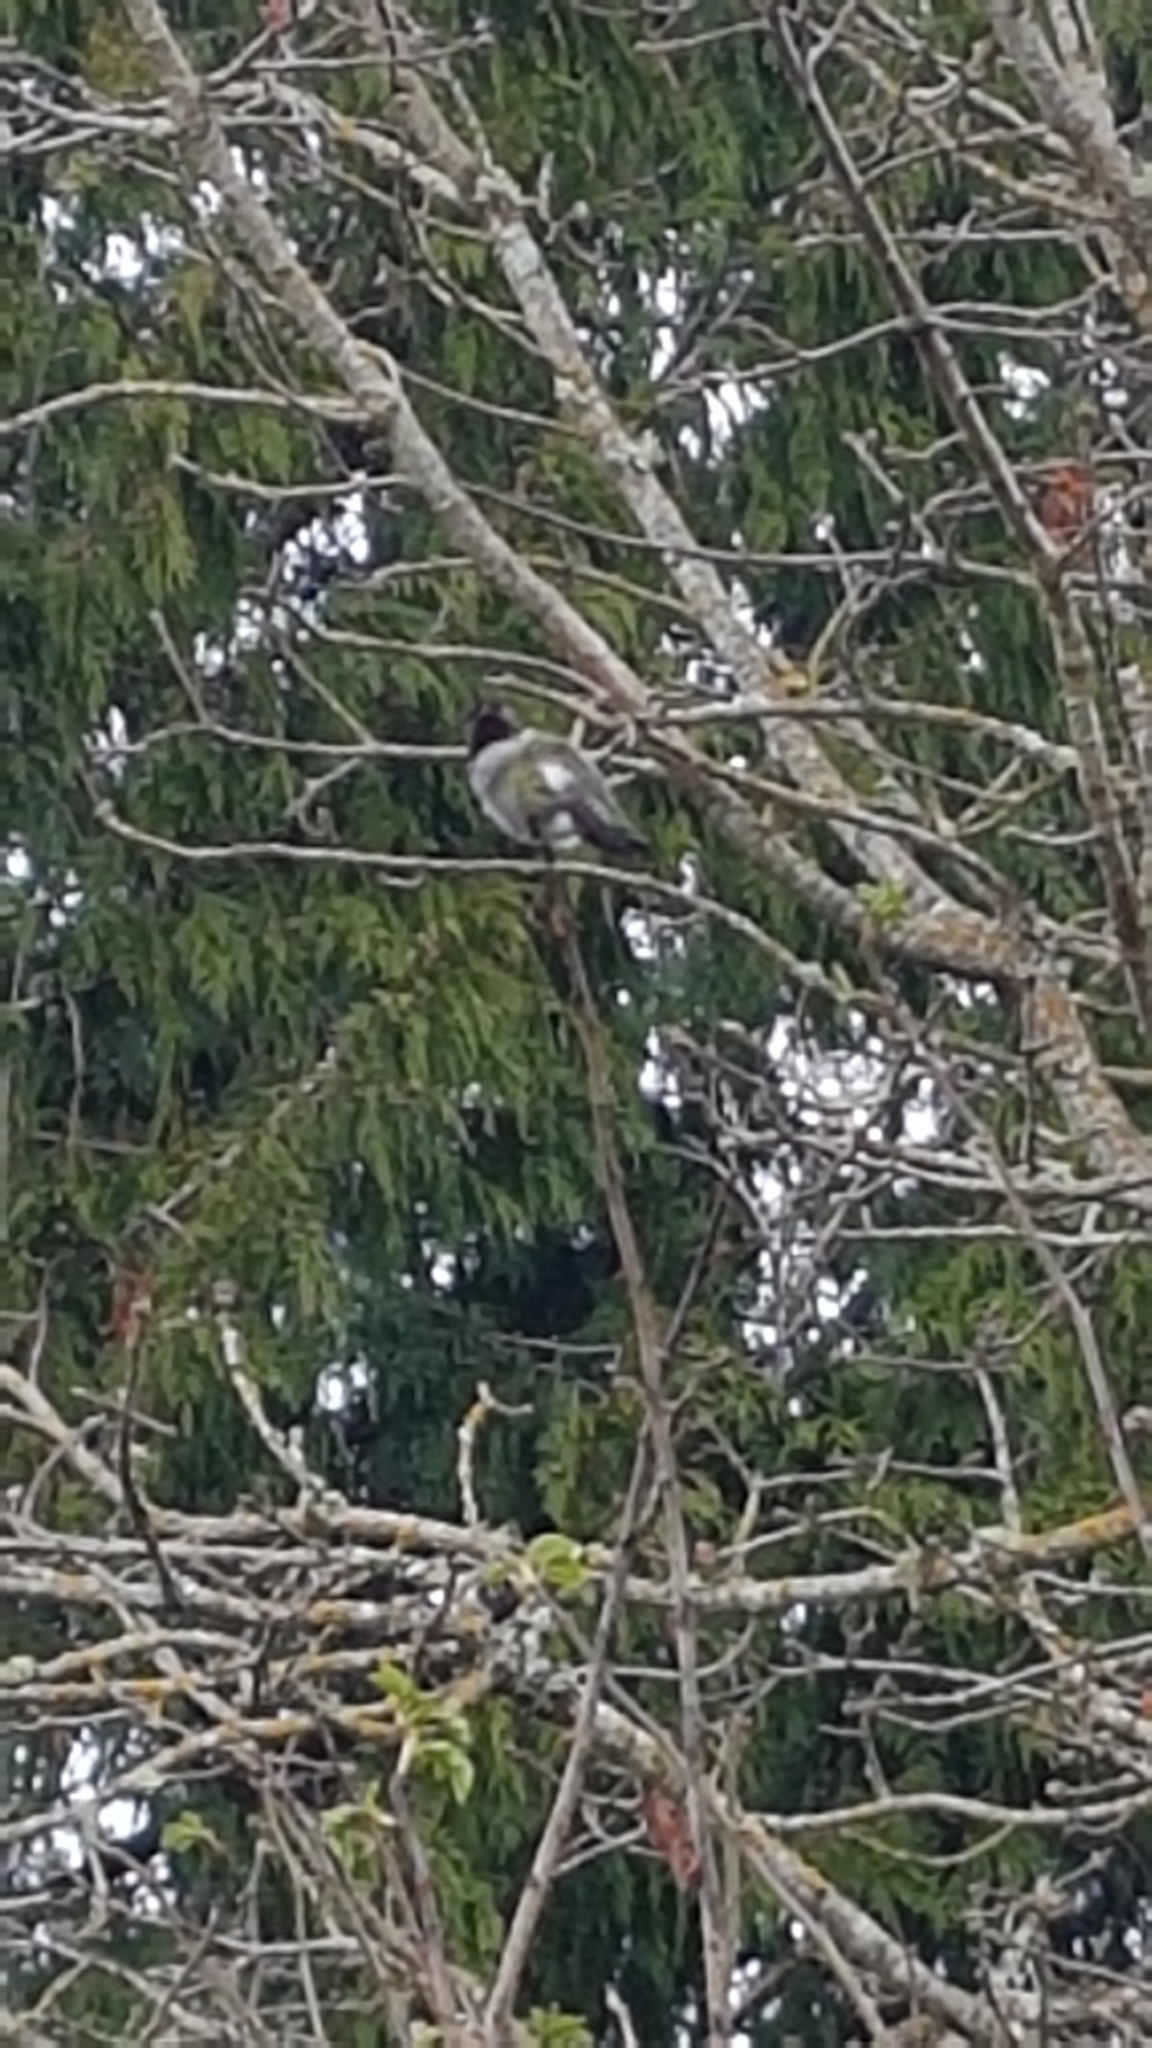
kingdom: Animalia
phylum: Chordata
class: Aves
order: Apodiformes
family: Trochilidae
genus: Calypte
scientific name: Calypte anna
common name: Anna's hummingbird
